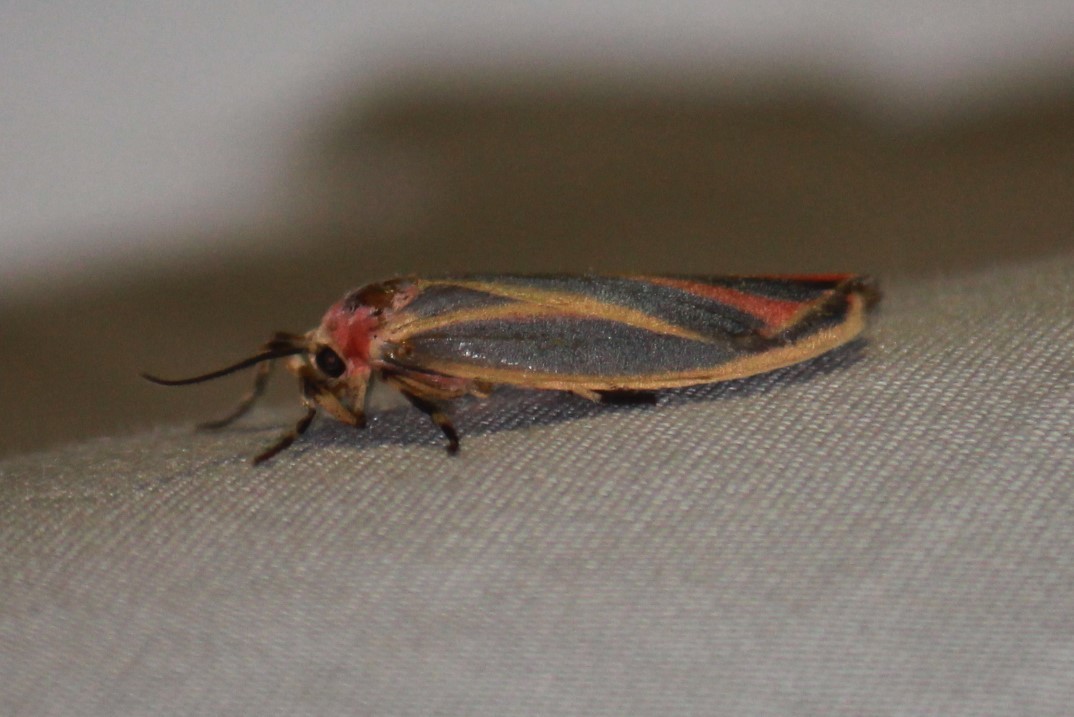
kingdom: Animalia
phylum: Arthropoda
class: Insecta
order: Lepidoptera
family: Erebidae
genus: Hypoprepia
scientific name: Hypoprepia fucosa
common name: Painted lichen moth
